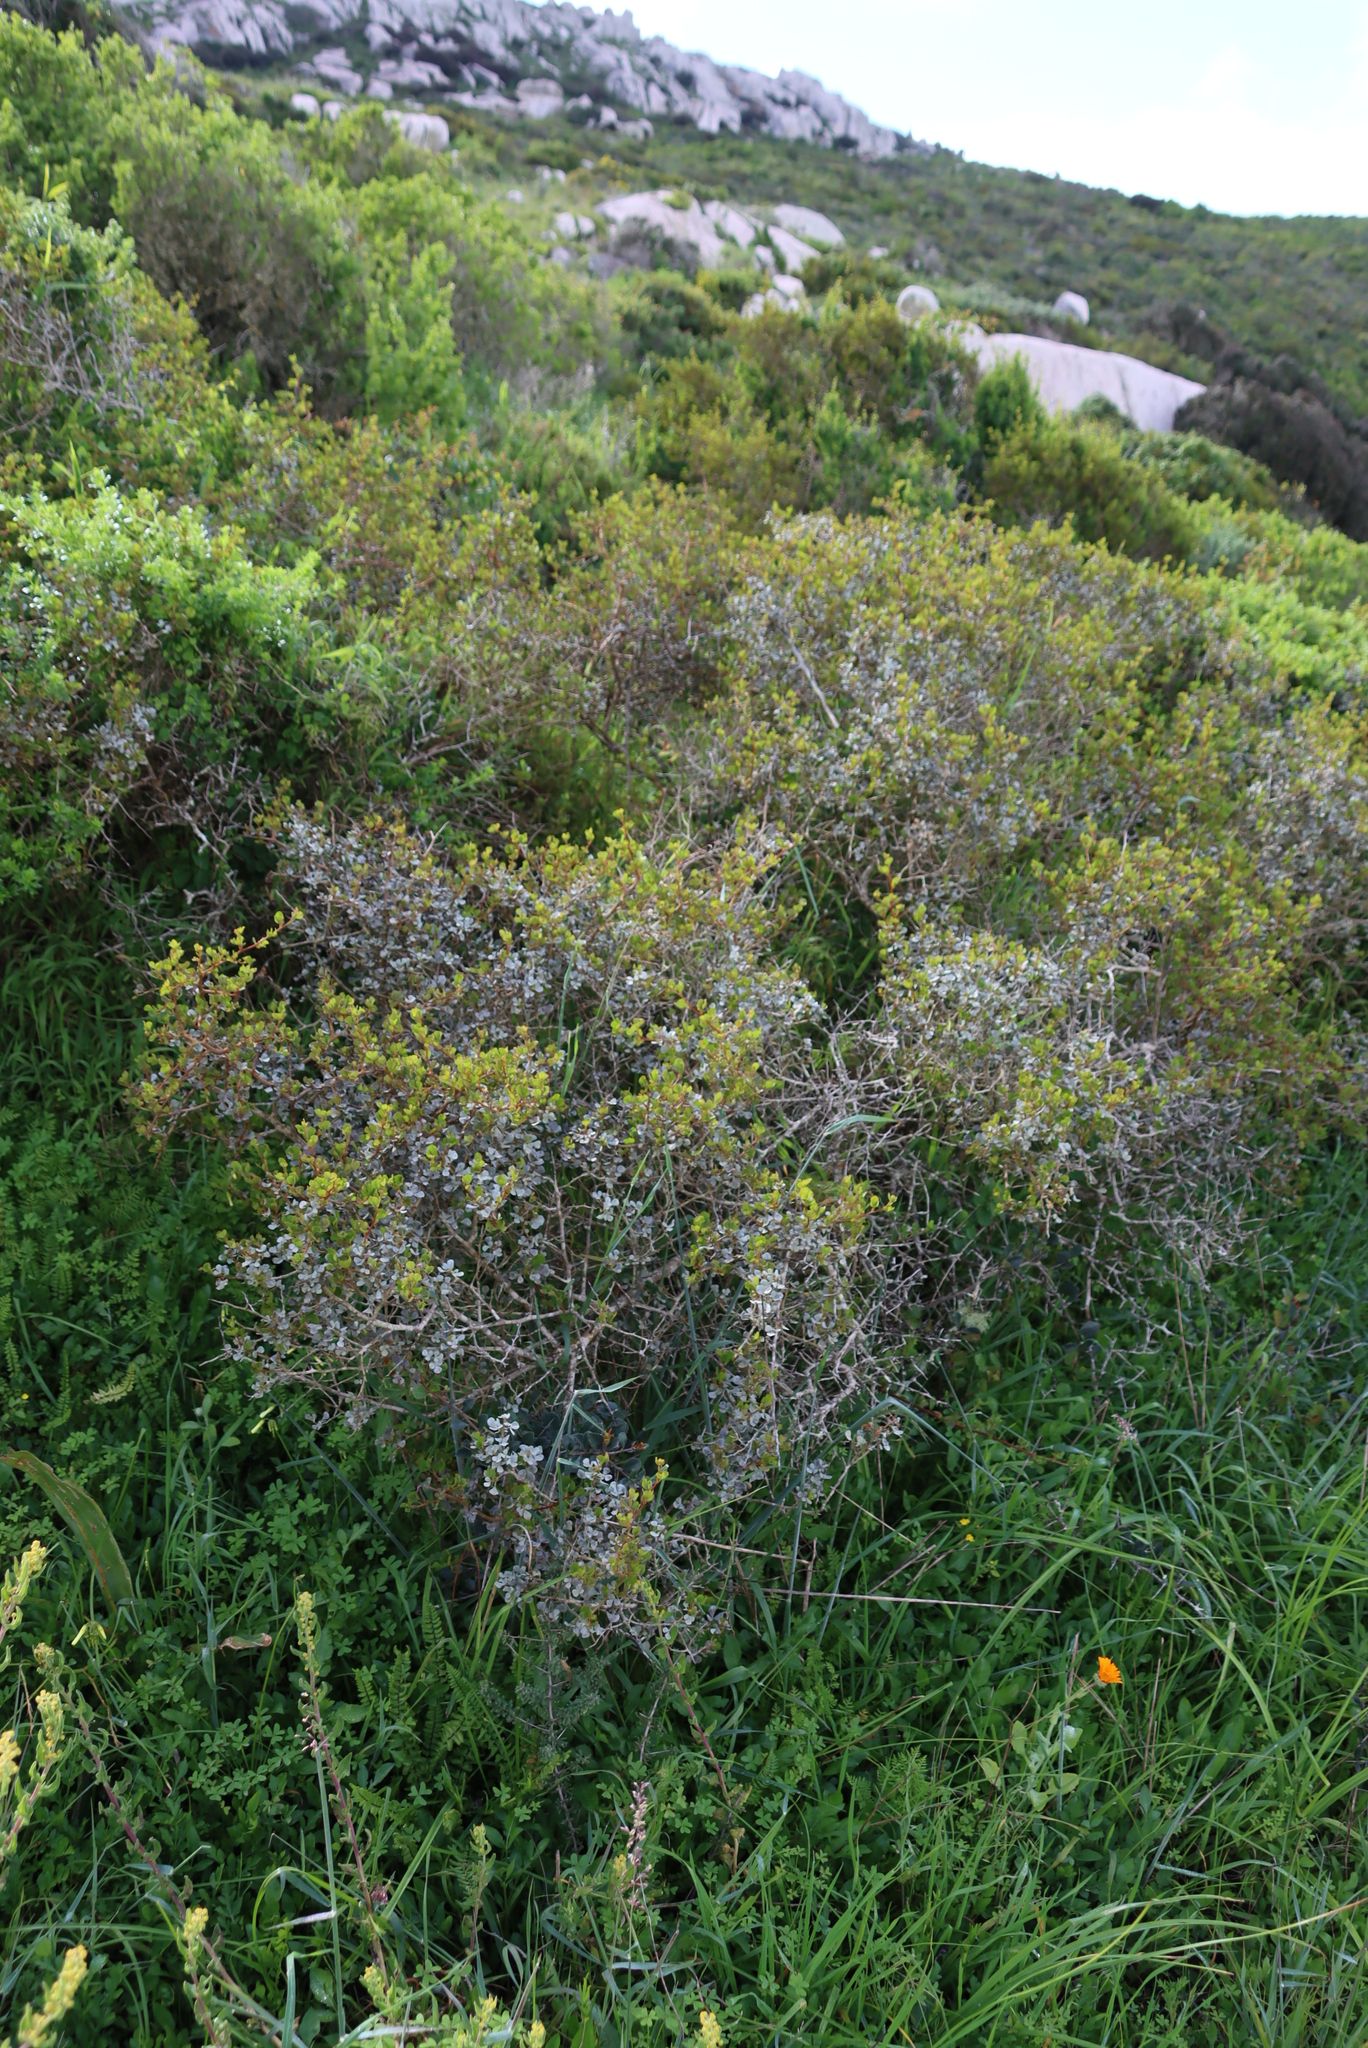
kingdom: Plantae
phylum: Tracheophyta
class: Magnoliopsida
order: Sapindales
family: Anacardiaceae
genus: Searsia
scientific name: Searsia glauca
